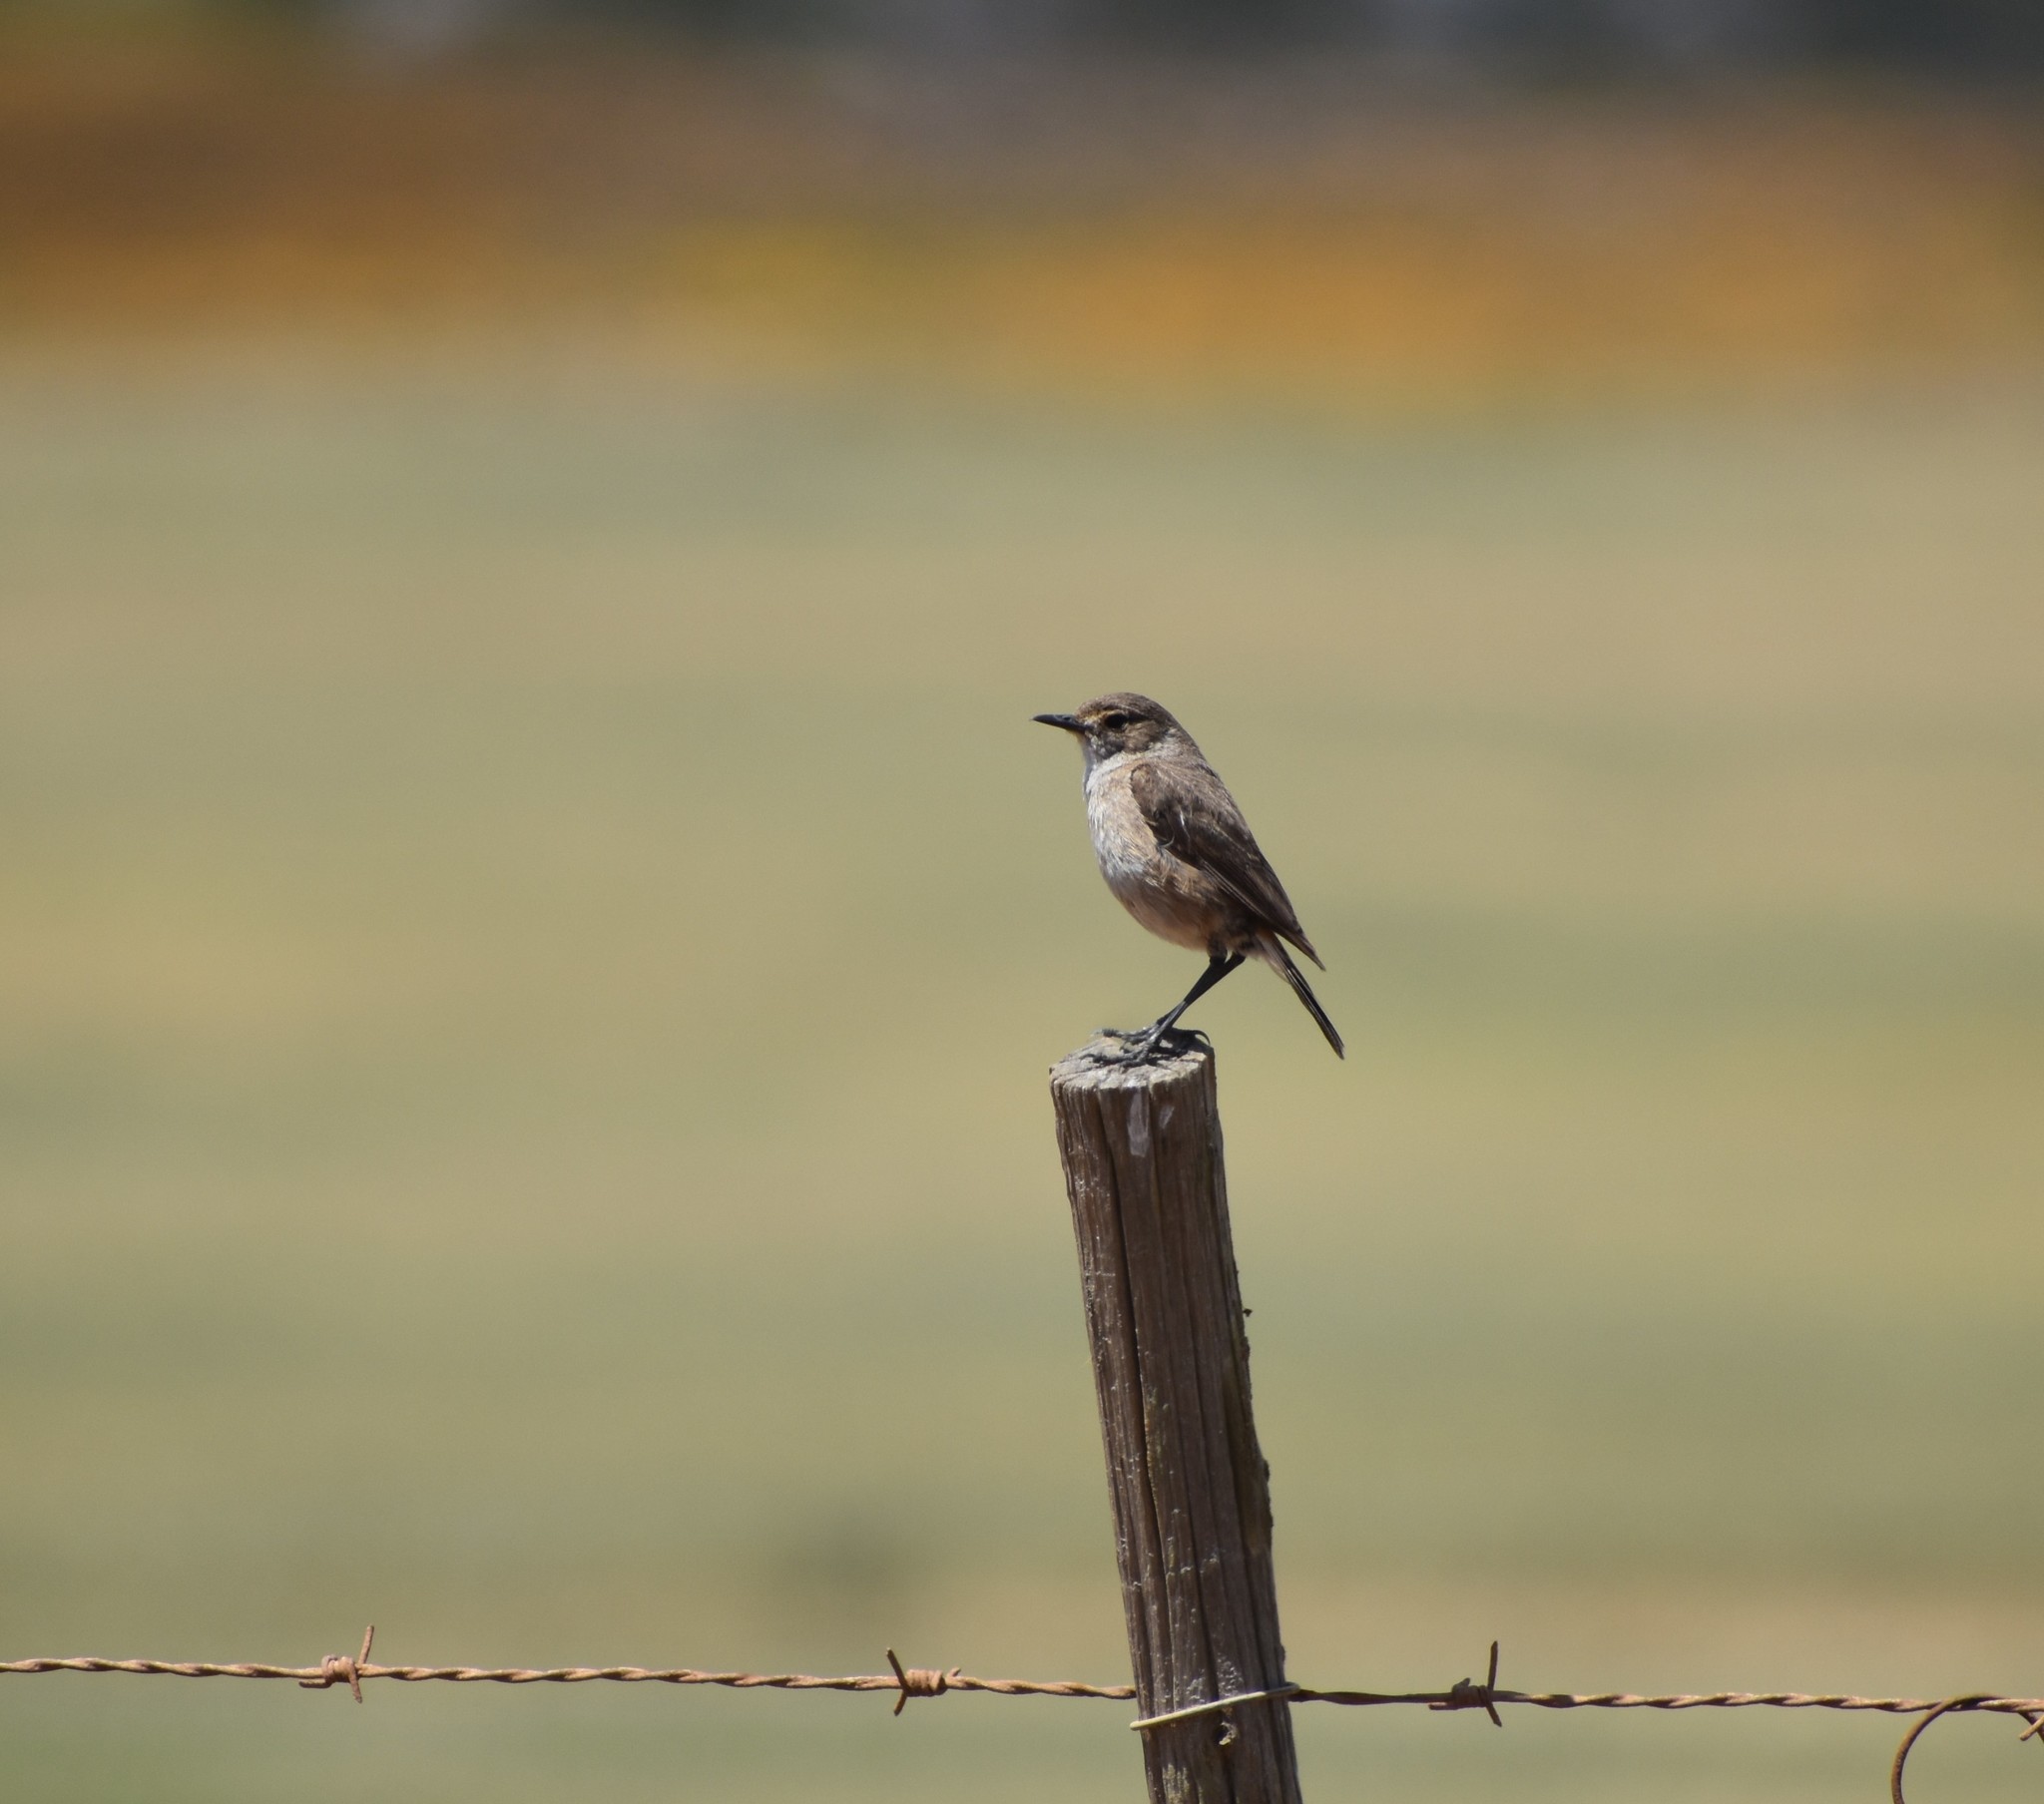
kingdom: Animalia
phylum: Chordata
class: Aves
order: Passeriformes
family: Muscicapidae
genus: Emarginata
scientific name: Emarginata sinuata
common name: Sickle-winged chat
